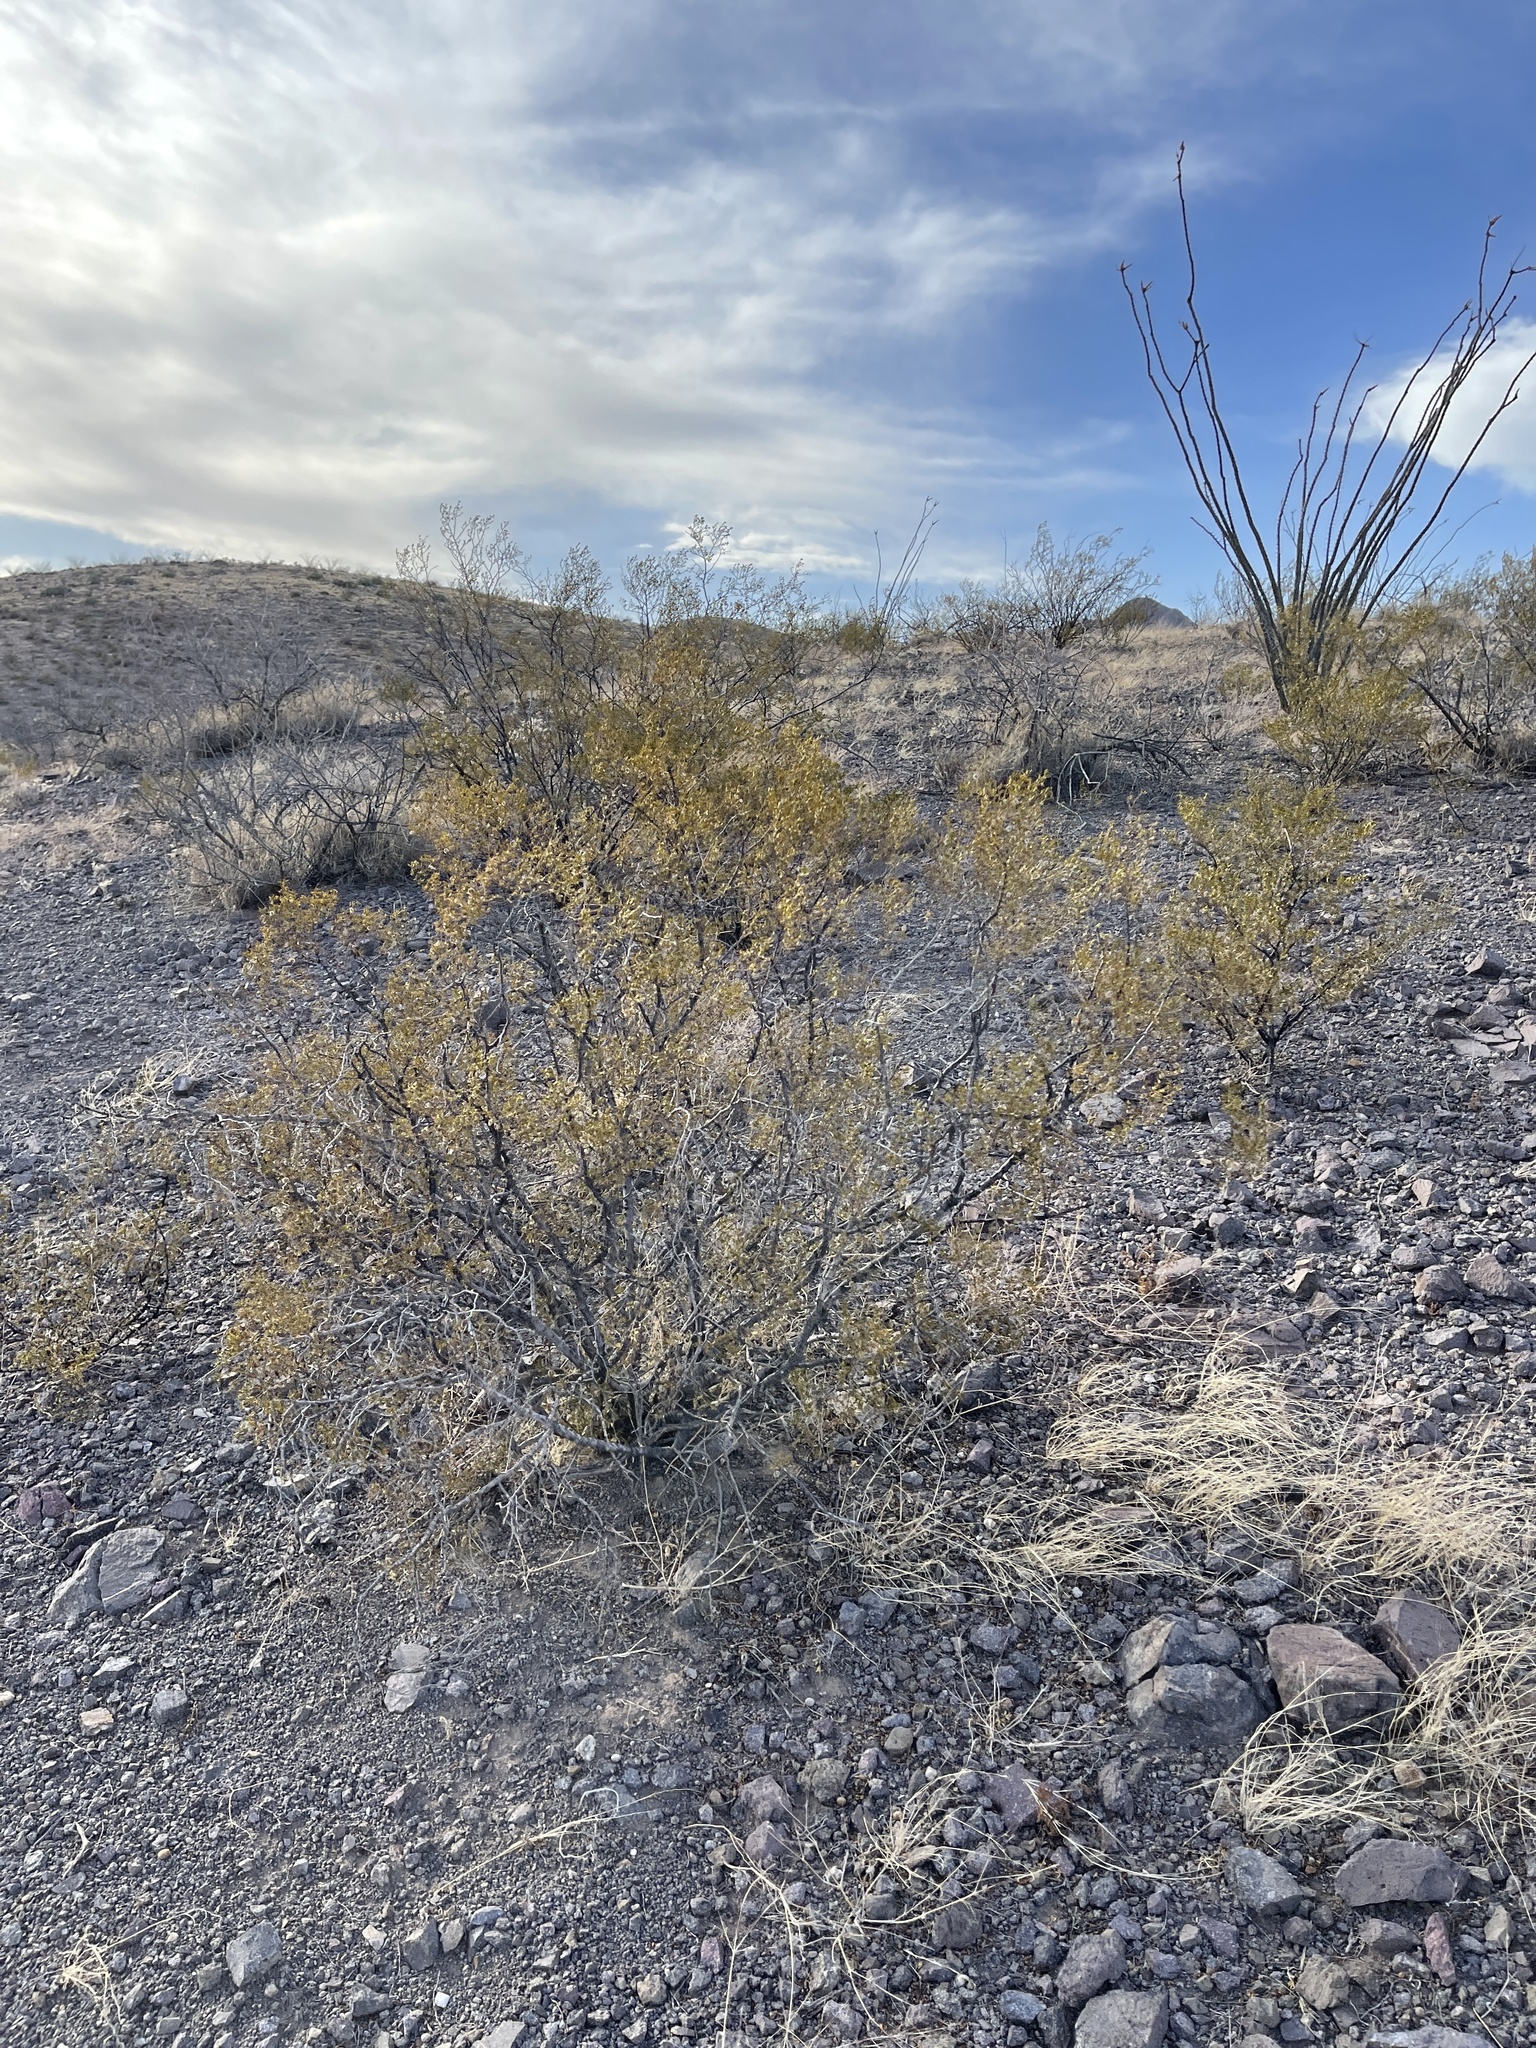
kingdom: Plantae
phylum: Tracheophyta
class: Magnoliopsida
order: Zygophyllales
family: Zygophyllaceae
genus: Larrea
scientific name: Larrea tridentata
